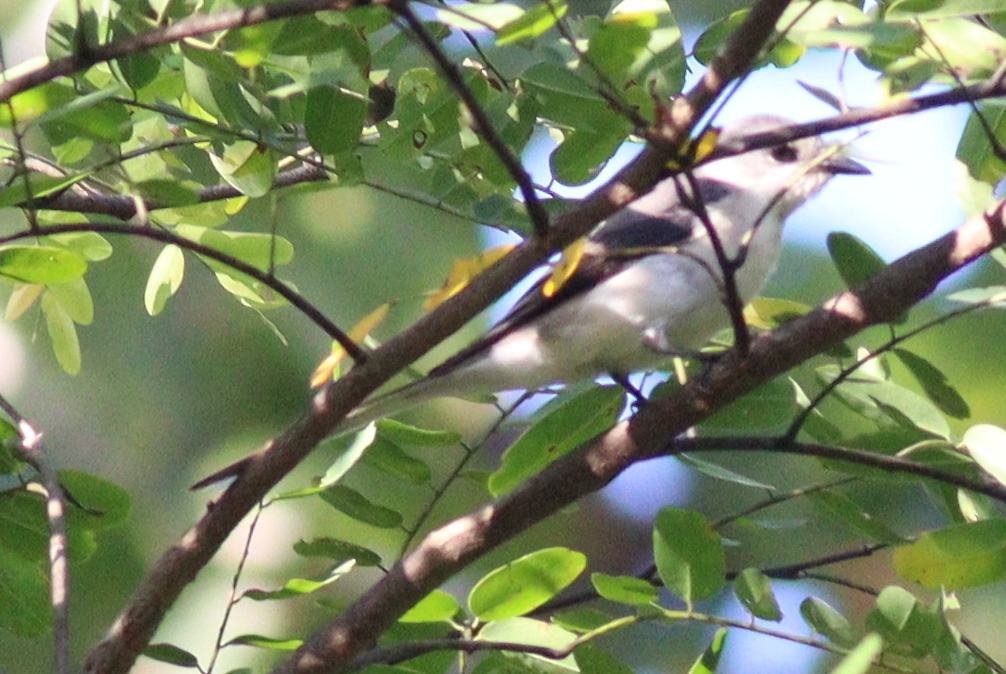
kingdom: Animalia
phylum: Chordata
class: Aves
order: Passeriformes
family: Campephagidae
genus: Pericrocotus
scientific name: Pericrocotus divaricatus
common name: Ashy minivet
